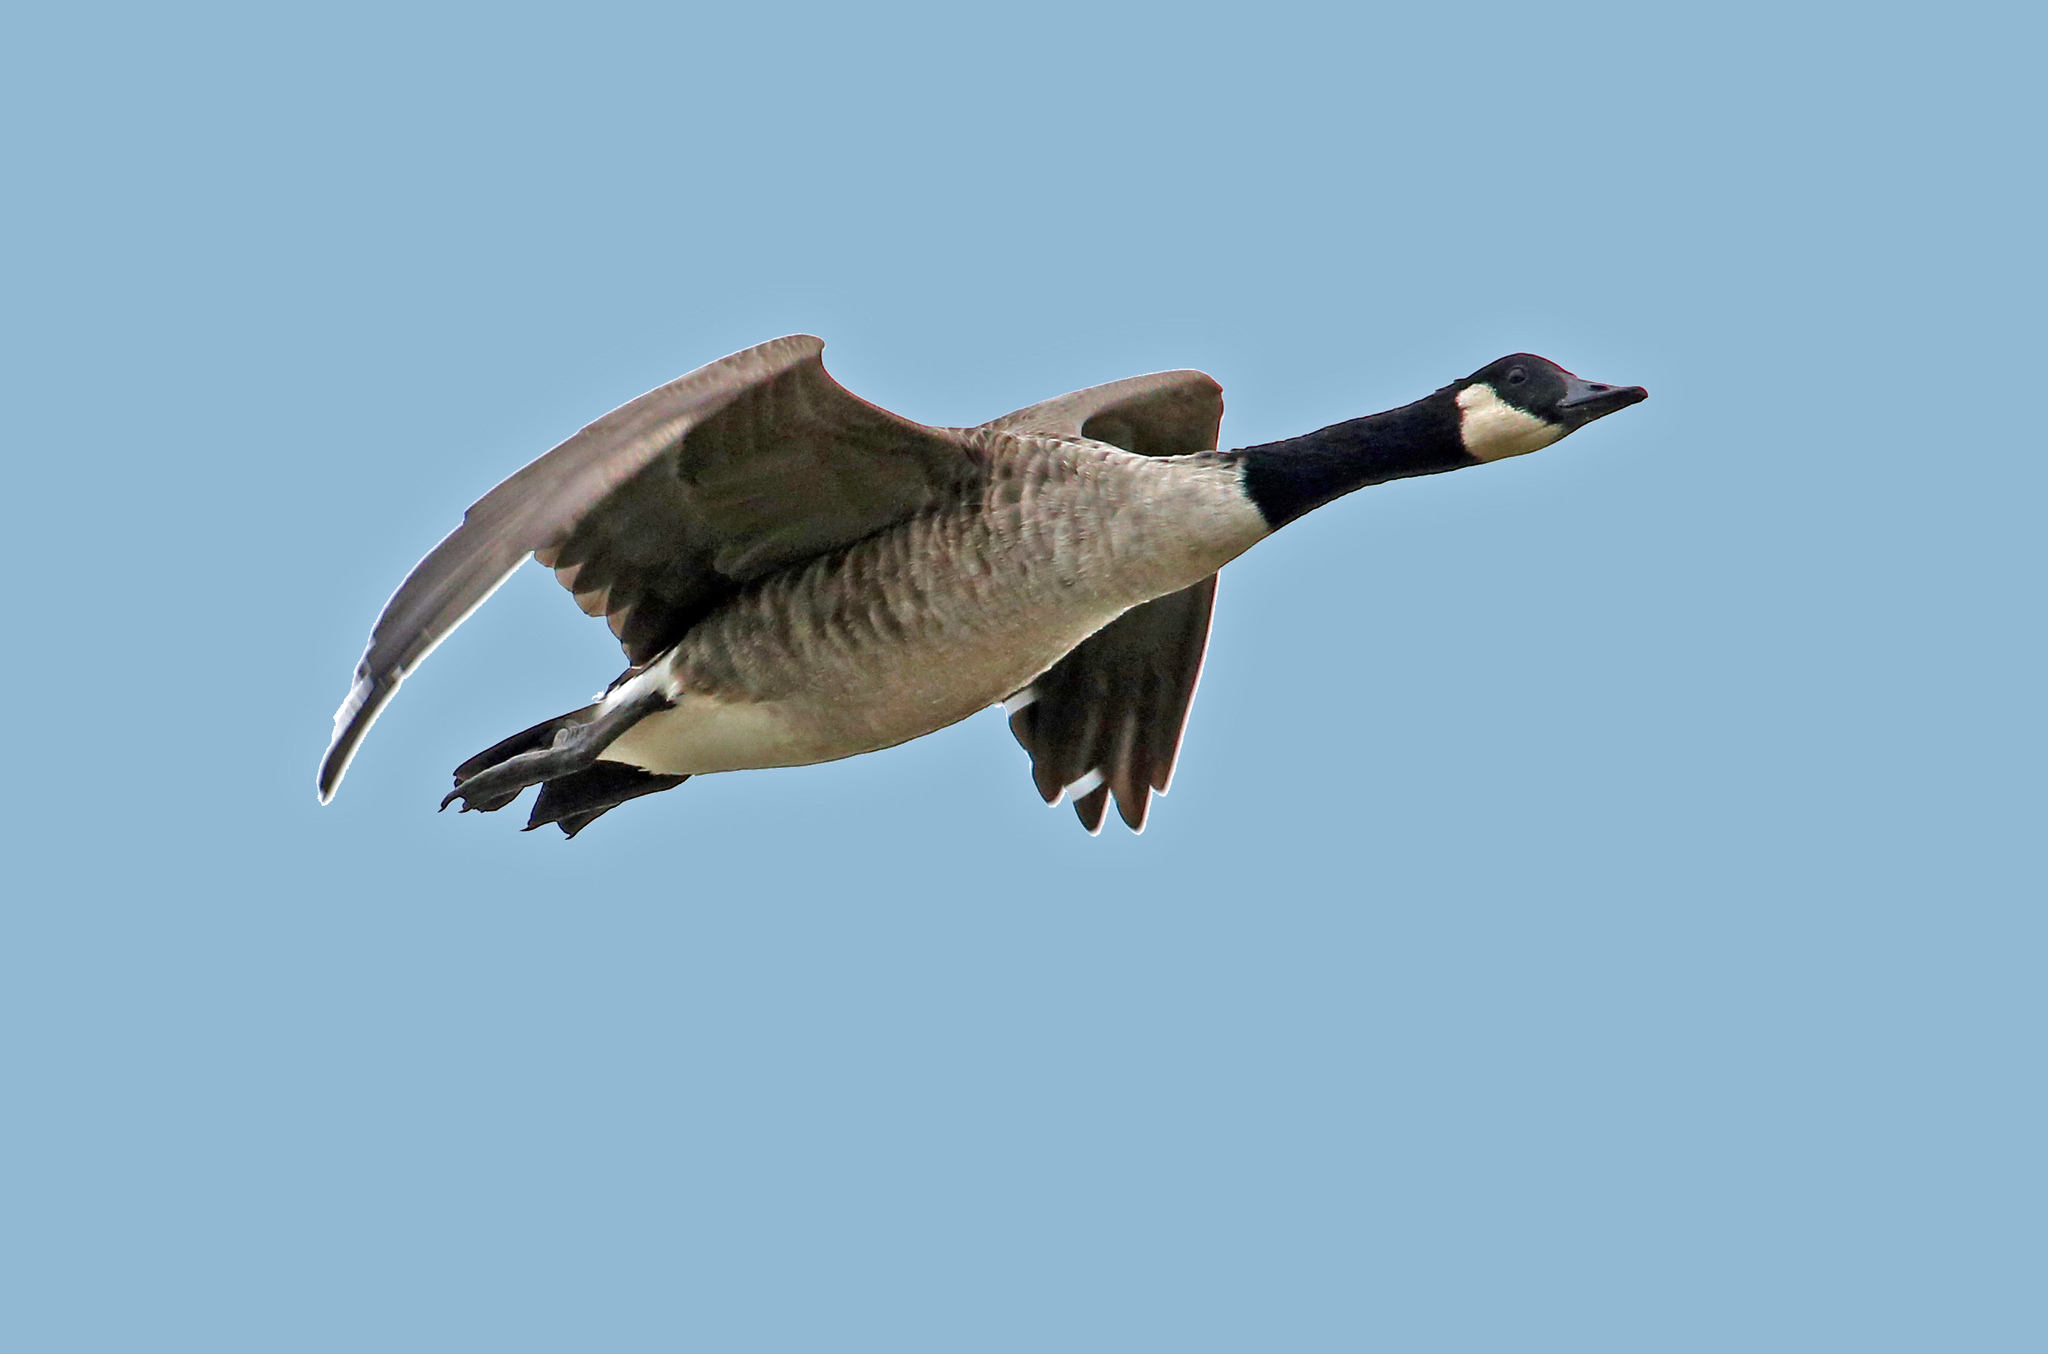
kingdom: Animalia
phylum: Chordata
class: Aves
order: Anseriformes
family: Anatidae
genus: Branta
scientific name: Branta canadensis
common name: Canada goose
